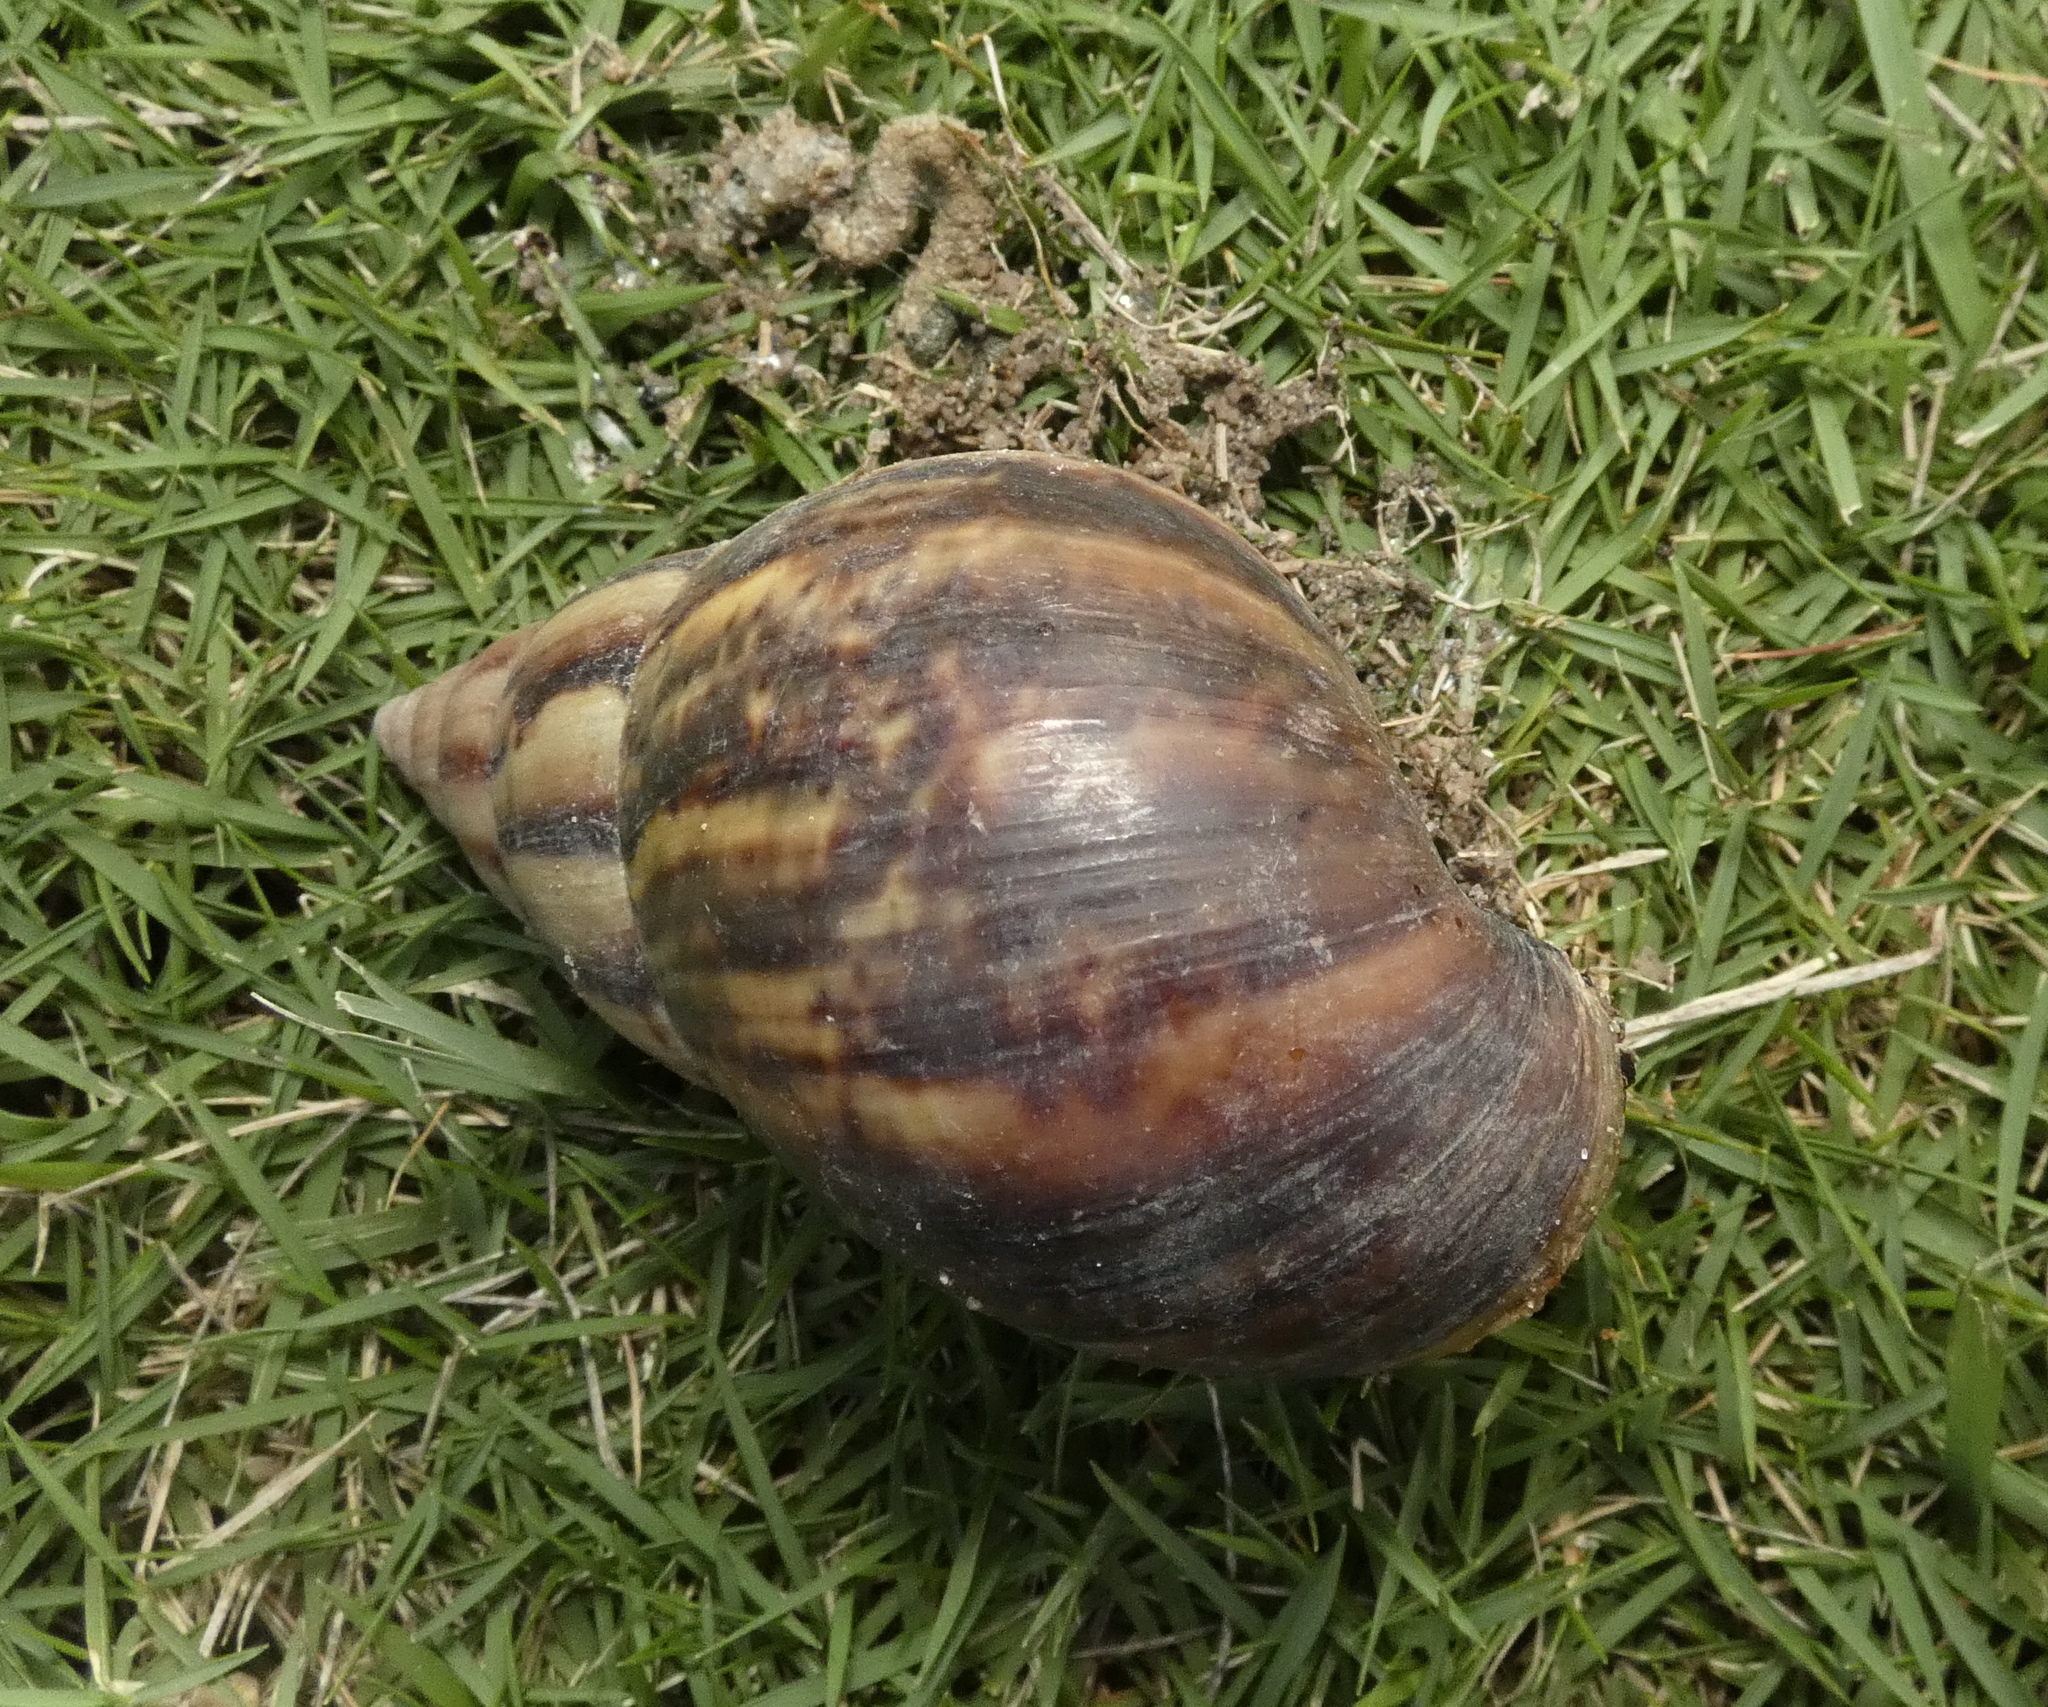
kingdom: Animalia
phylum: Mollusca
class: Gastropoda
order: Stylommatophora
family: Achatinidae
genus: Lissachatina
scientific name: Lissachatina fulica
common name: Giant african snail
